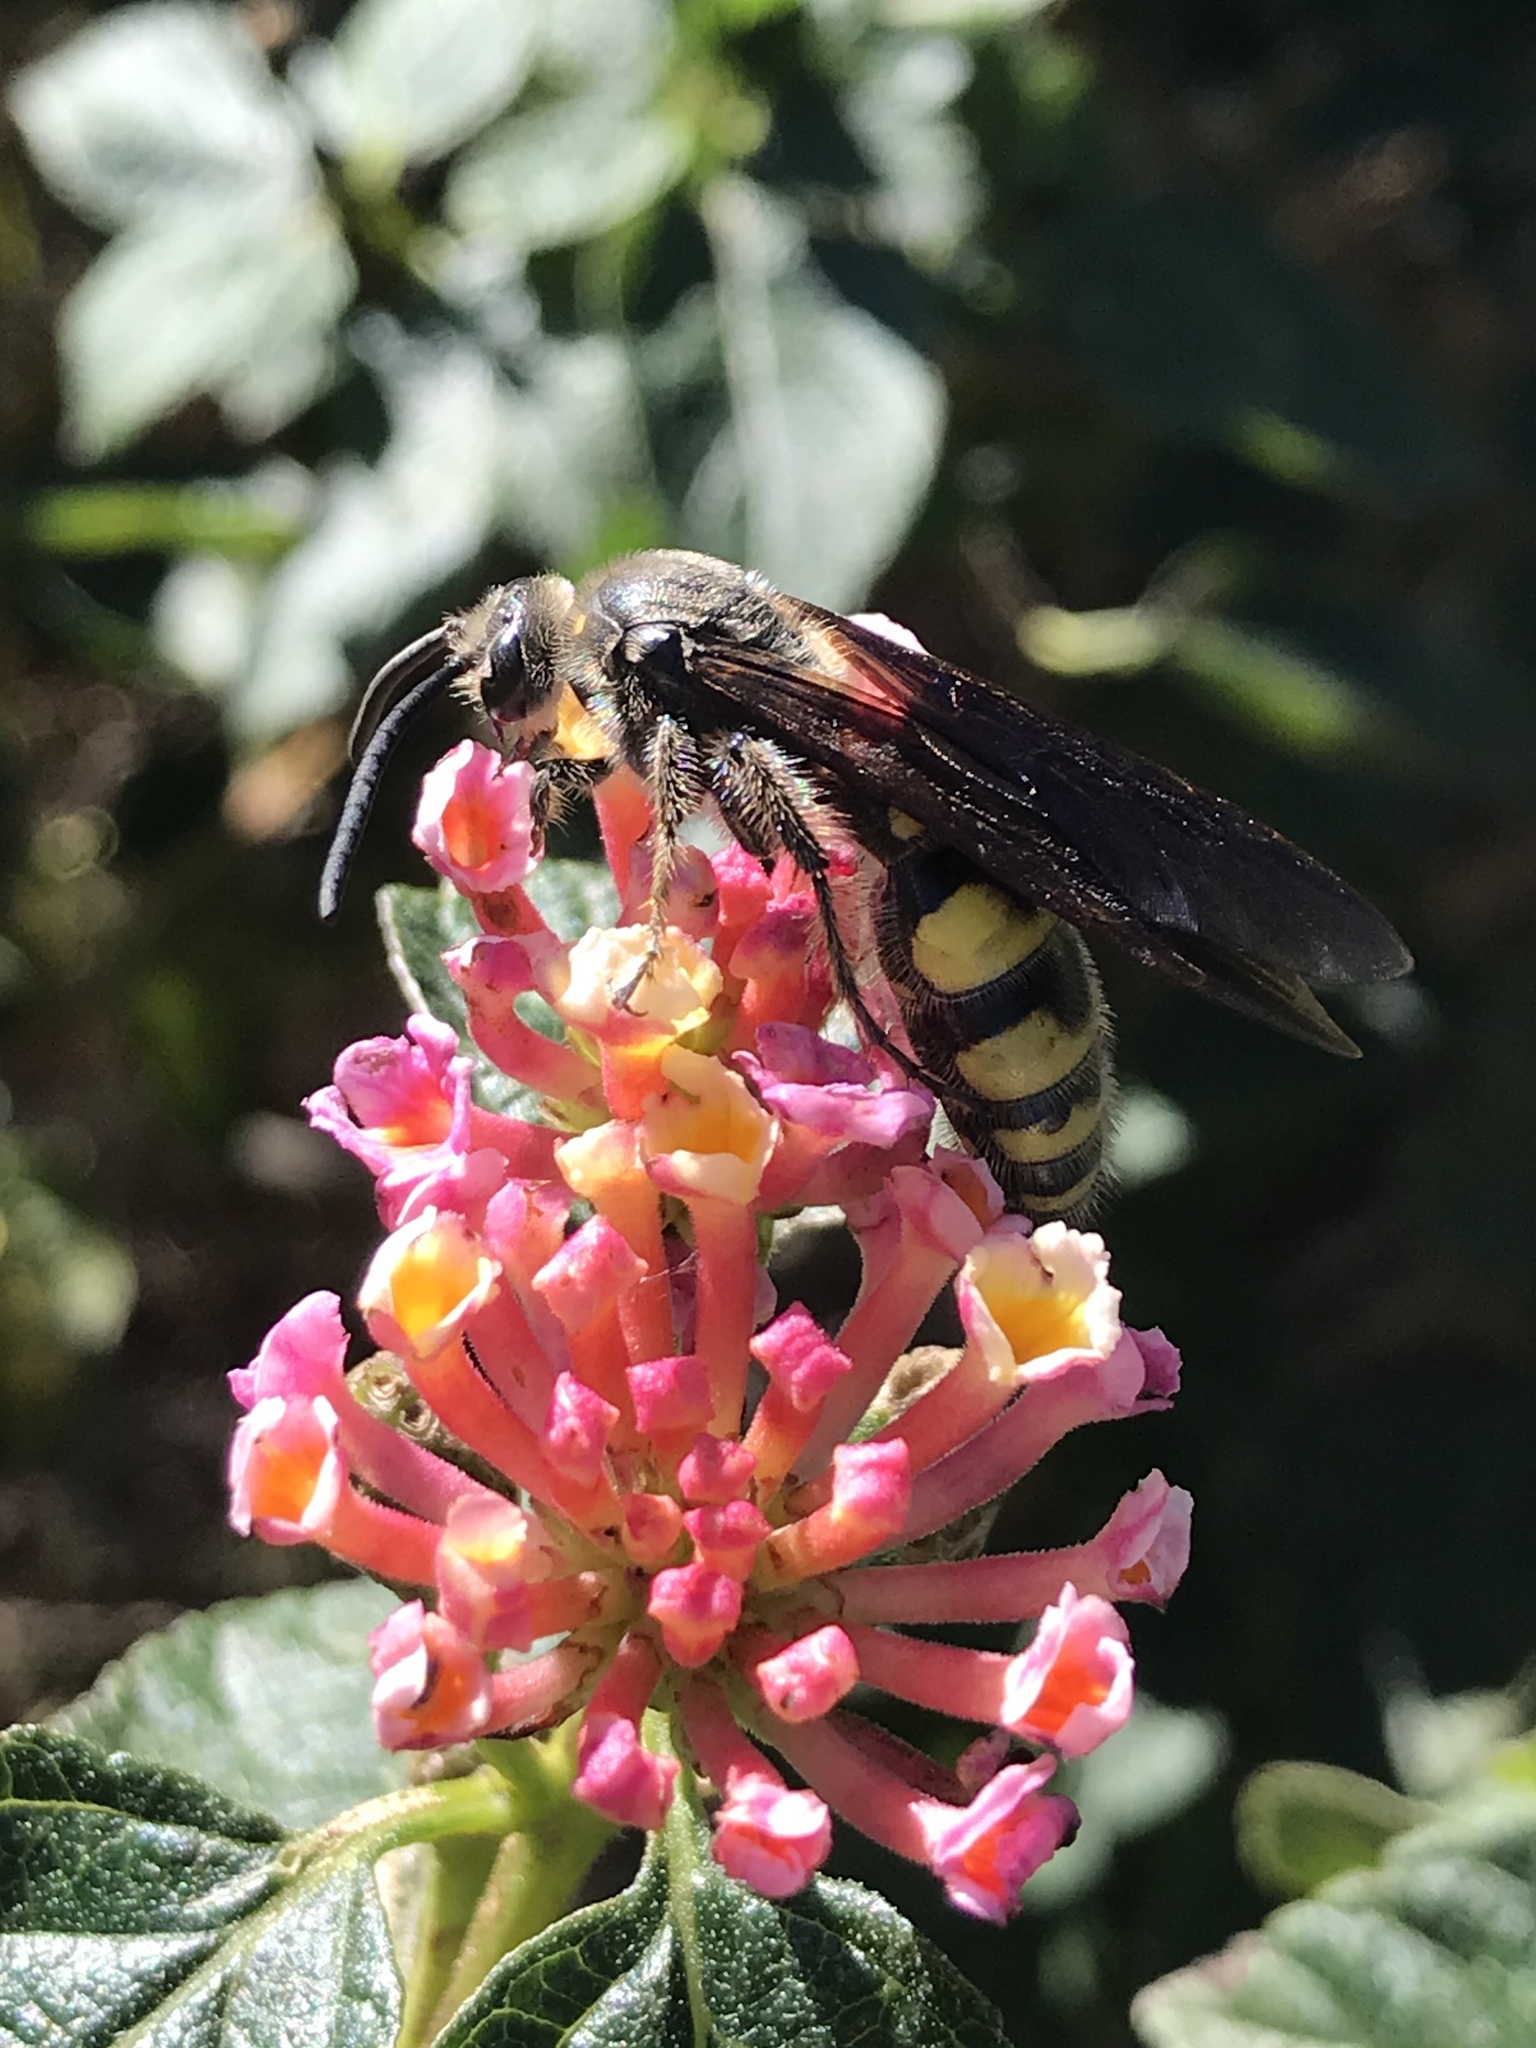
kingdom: Animalia
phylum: Arthropoda
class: Insecta
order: Hymenoptera
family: Scoliidae
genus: Pygodasis
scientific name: Pygodasis
